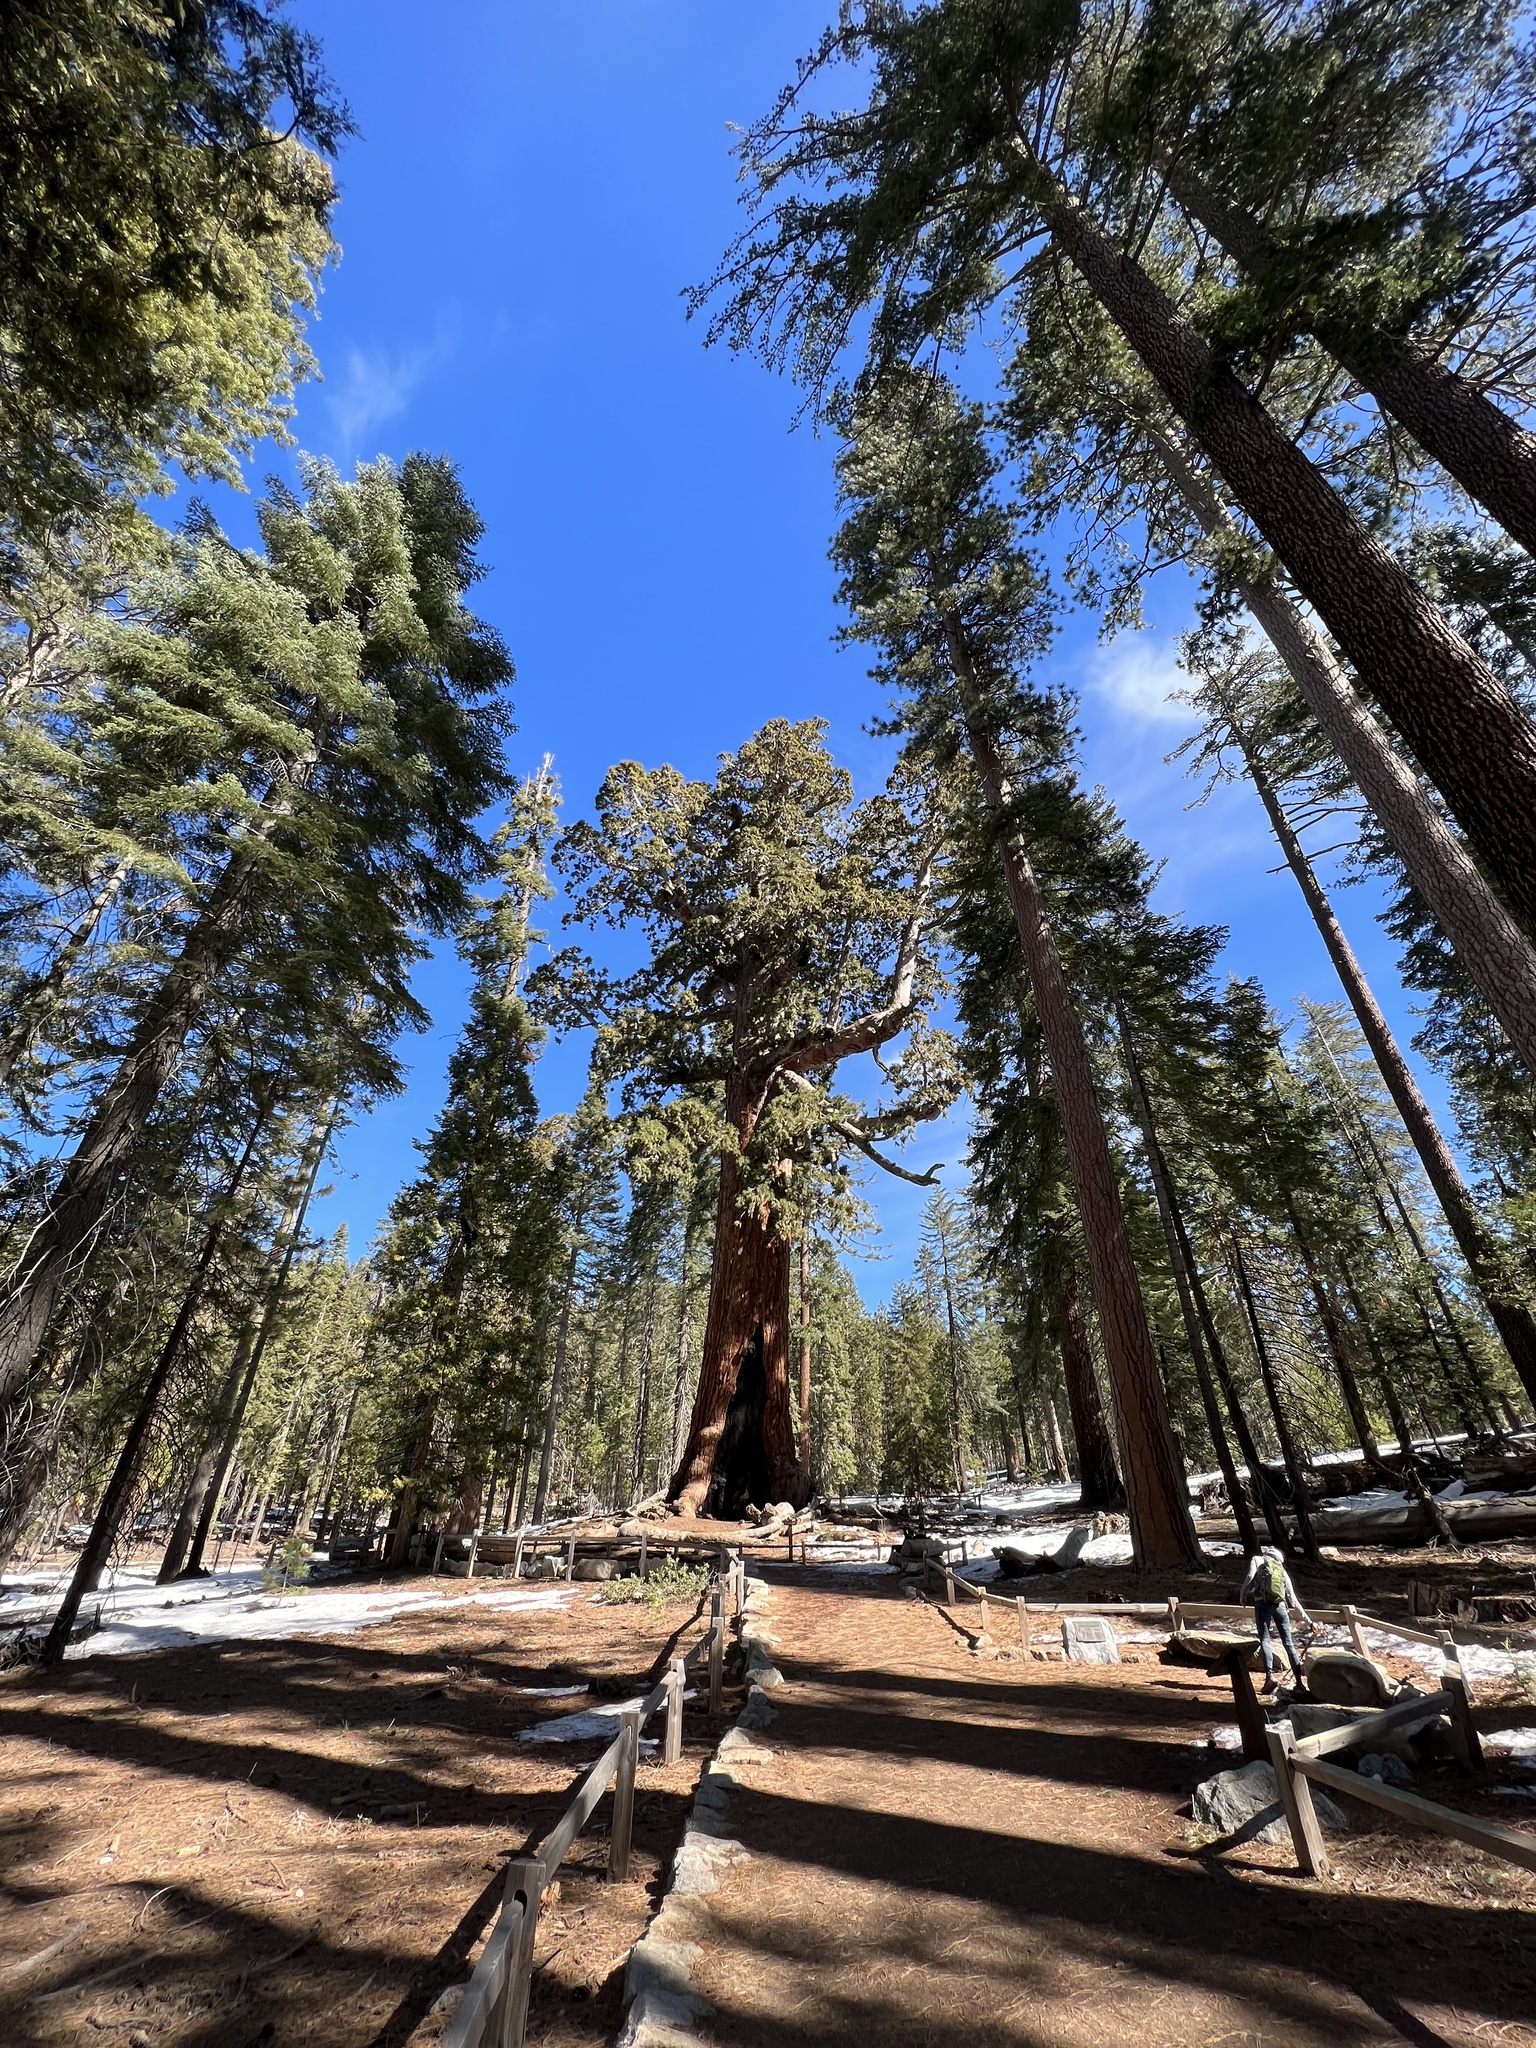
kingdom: Plantae
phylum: Tracheophyta
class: Pinopsida
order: Pinales
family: Cupressaceae
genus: Sequoiadendron
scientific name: Sequoiadendron giganteum
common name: Wellingtonia
